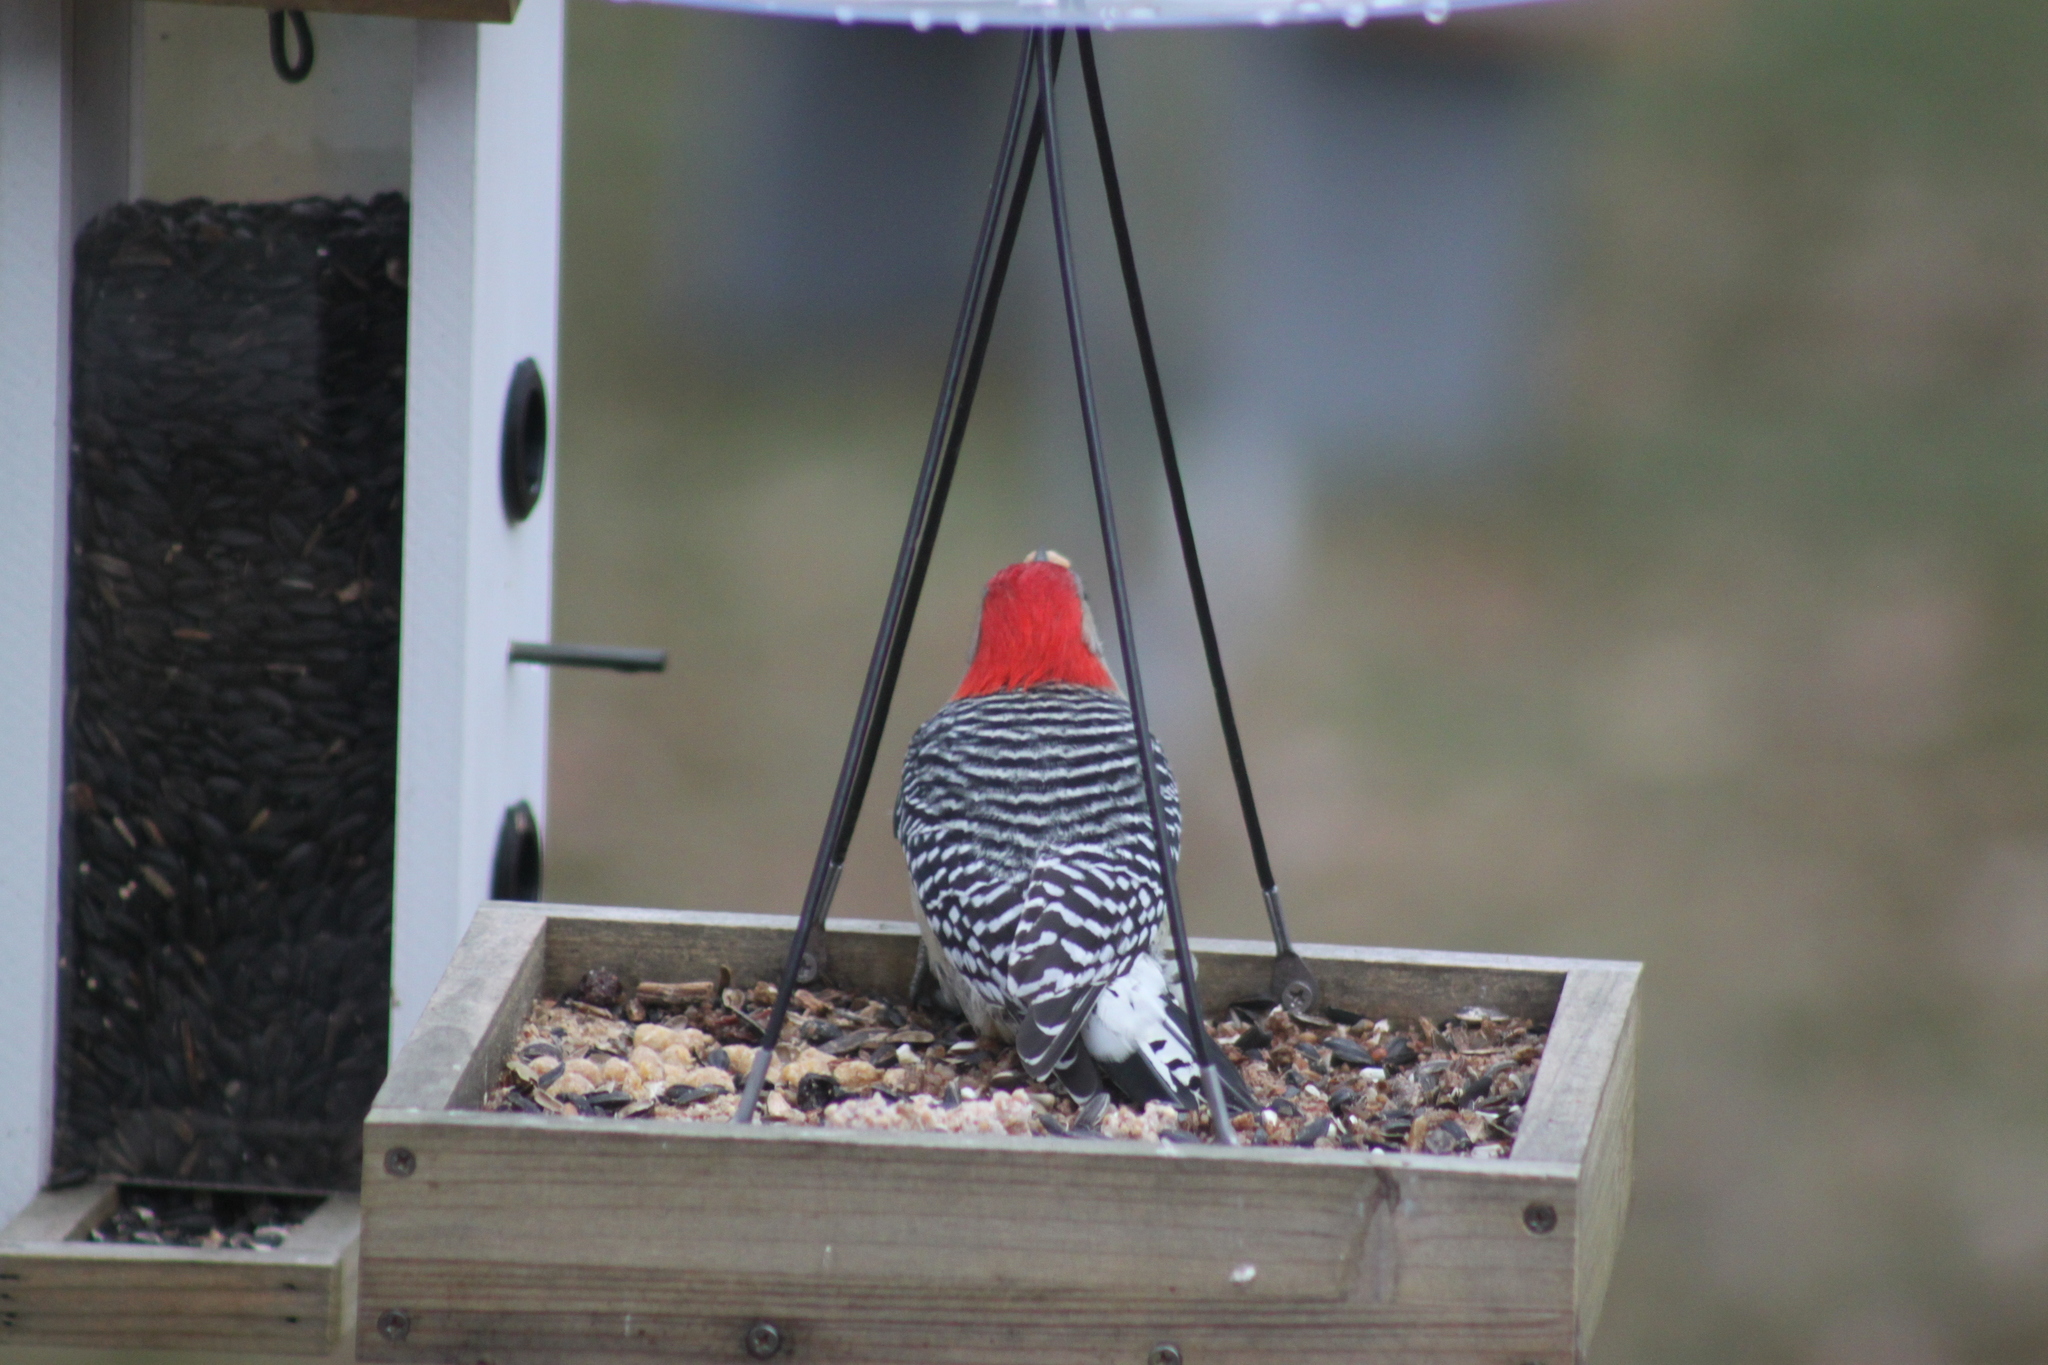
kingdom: Animalia
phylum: Chordata
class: Aves
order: Piciformes
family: Picidae
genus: Melanerpes
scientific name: Melanerpes carolinus
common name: Red-bellied woodpecker
